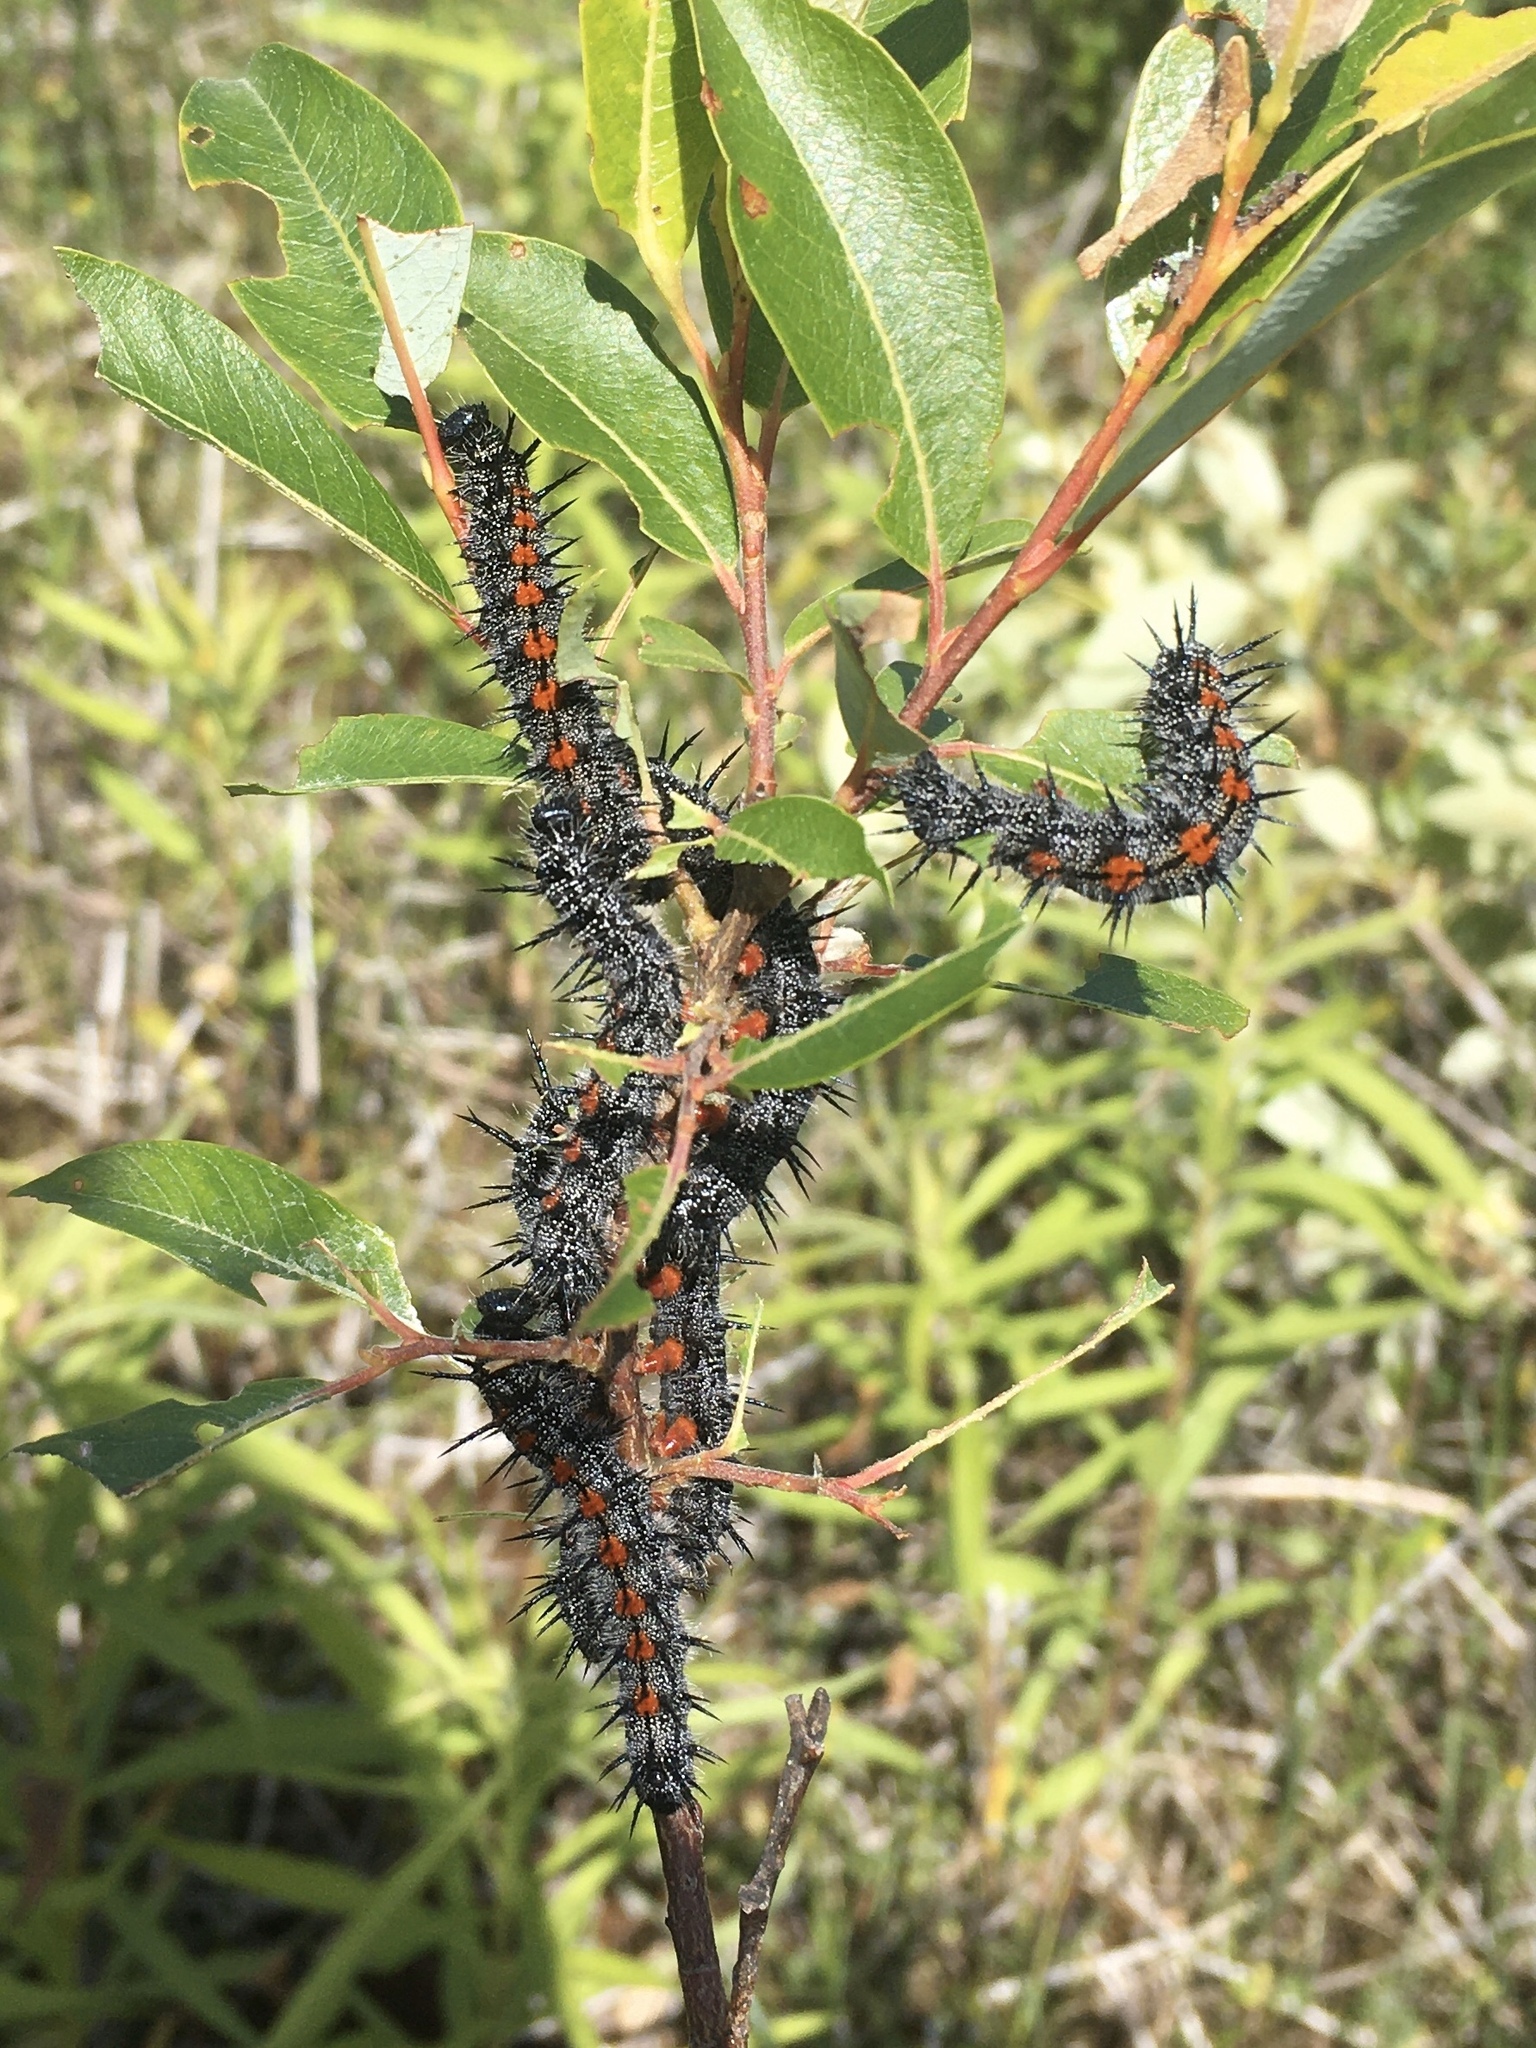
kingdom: Animalia
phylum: Arthropoda
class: Insecta
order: Lepidoptera
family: Nymphalidae
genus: Nymphalis
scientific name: Nymphalis antiopa
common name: Camberwell beauty
